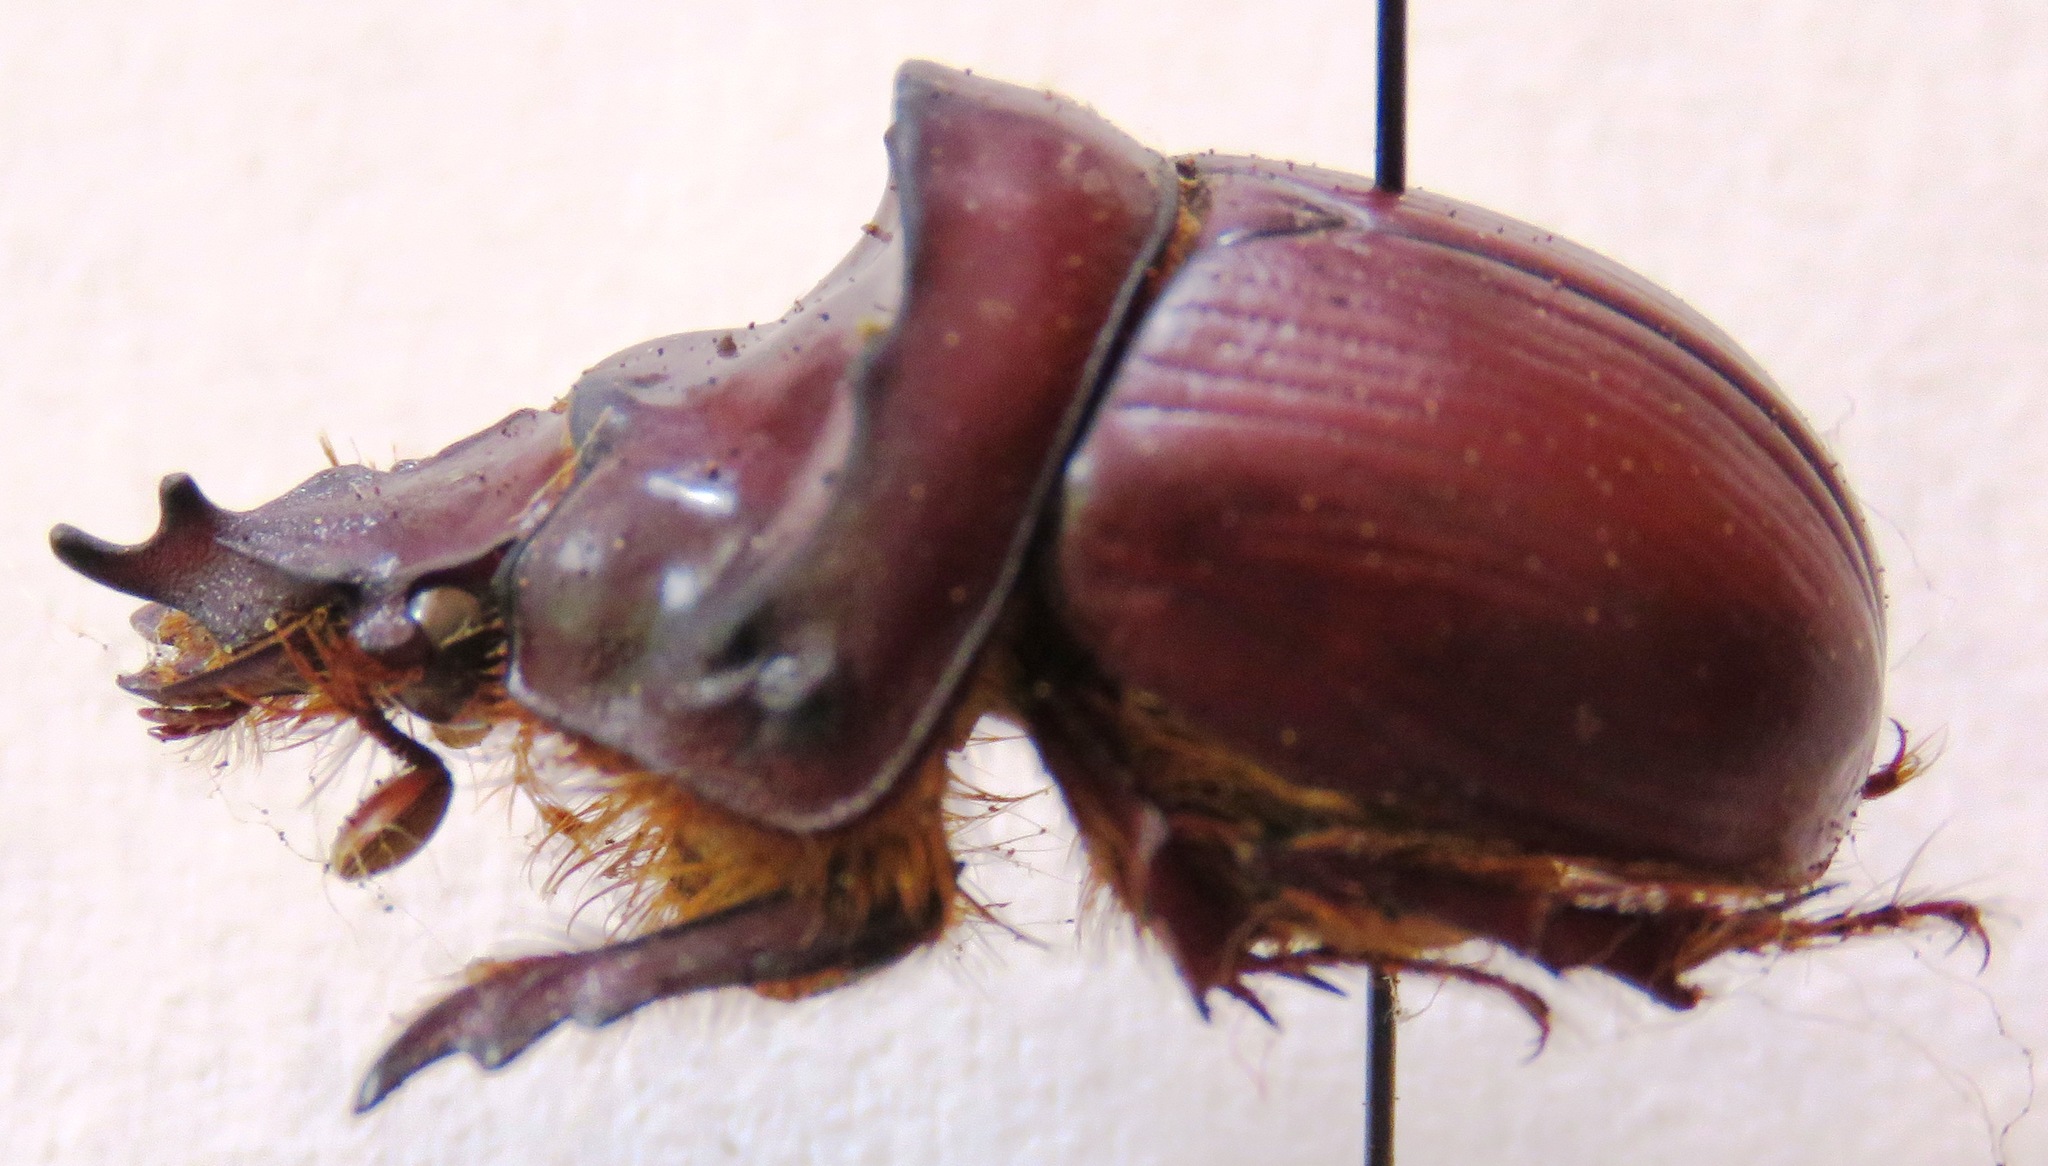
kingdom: Animalia
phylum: Arthropoda
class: Insecta
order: Coleoptera
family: Geotrupidae
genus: Bolborhinum
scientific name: Bolborhinum geotrupoides
